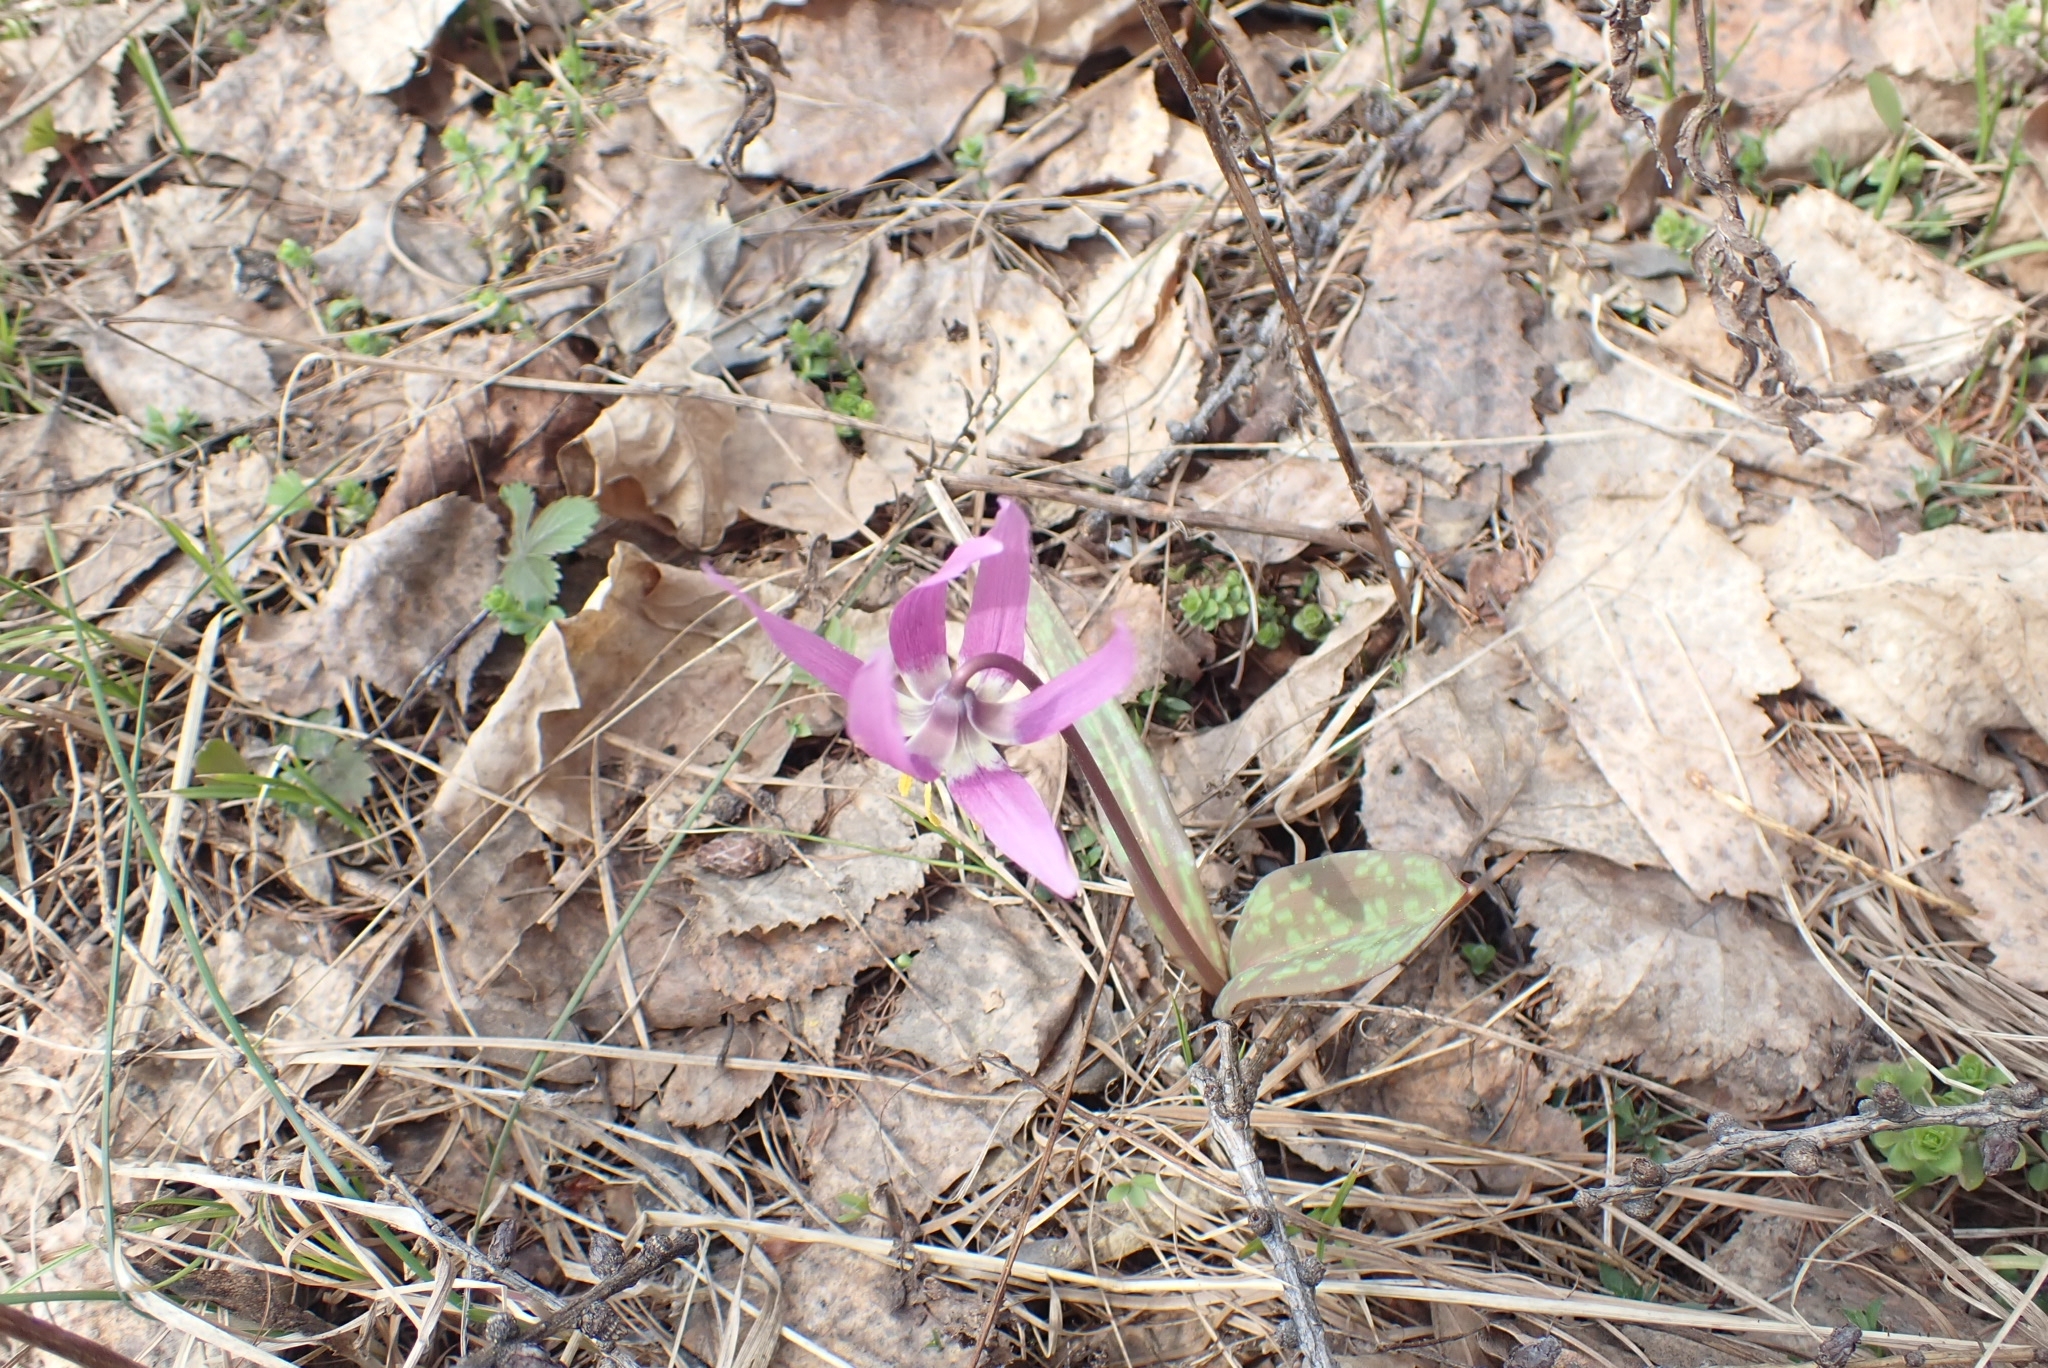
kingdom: Plantae
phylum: Tracheophyta
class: Liliopsida
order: Liliales
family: Liliaceae
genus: Erythronium
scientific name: Erythronium sibiricum
